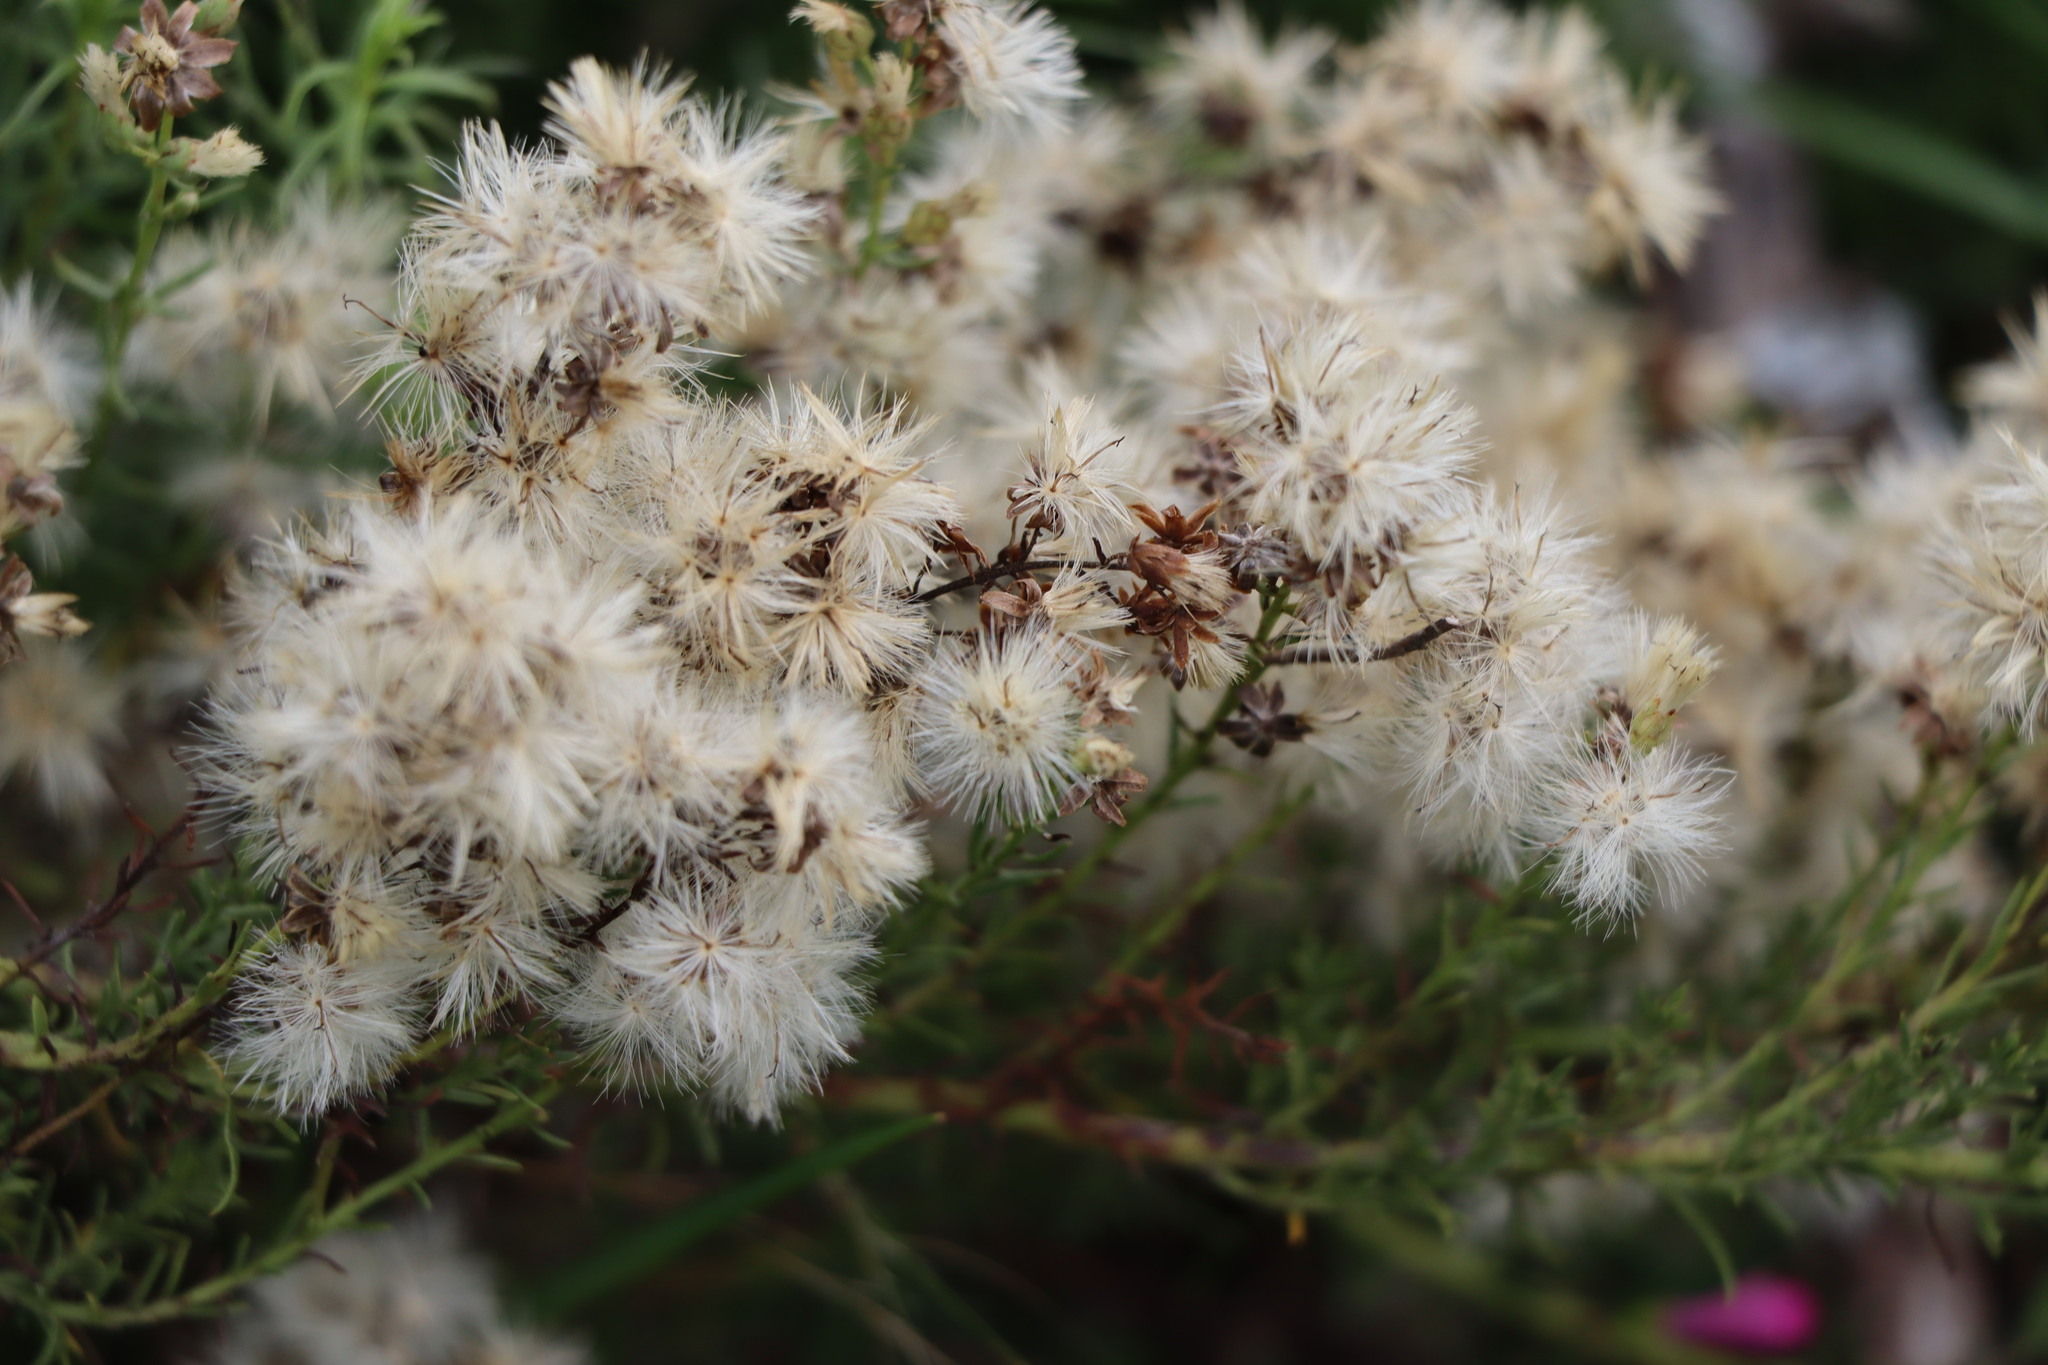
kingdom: Plantae
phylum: Tracheophyta
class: Magnoliopsida
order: Asterales
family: Asteraceae
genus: Baccharis
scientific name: Baccharis coridifolia
